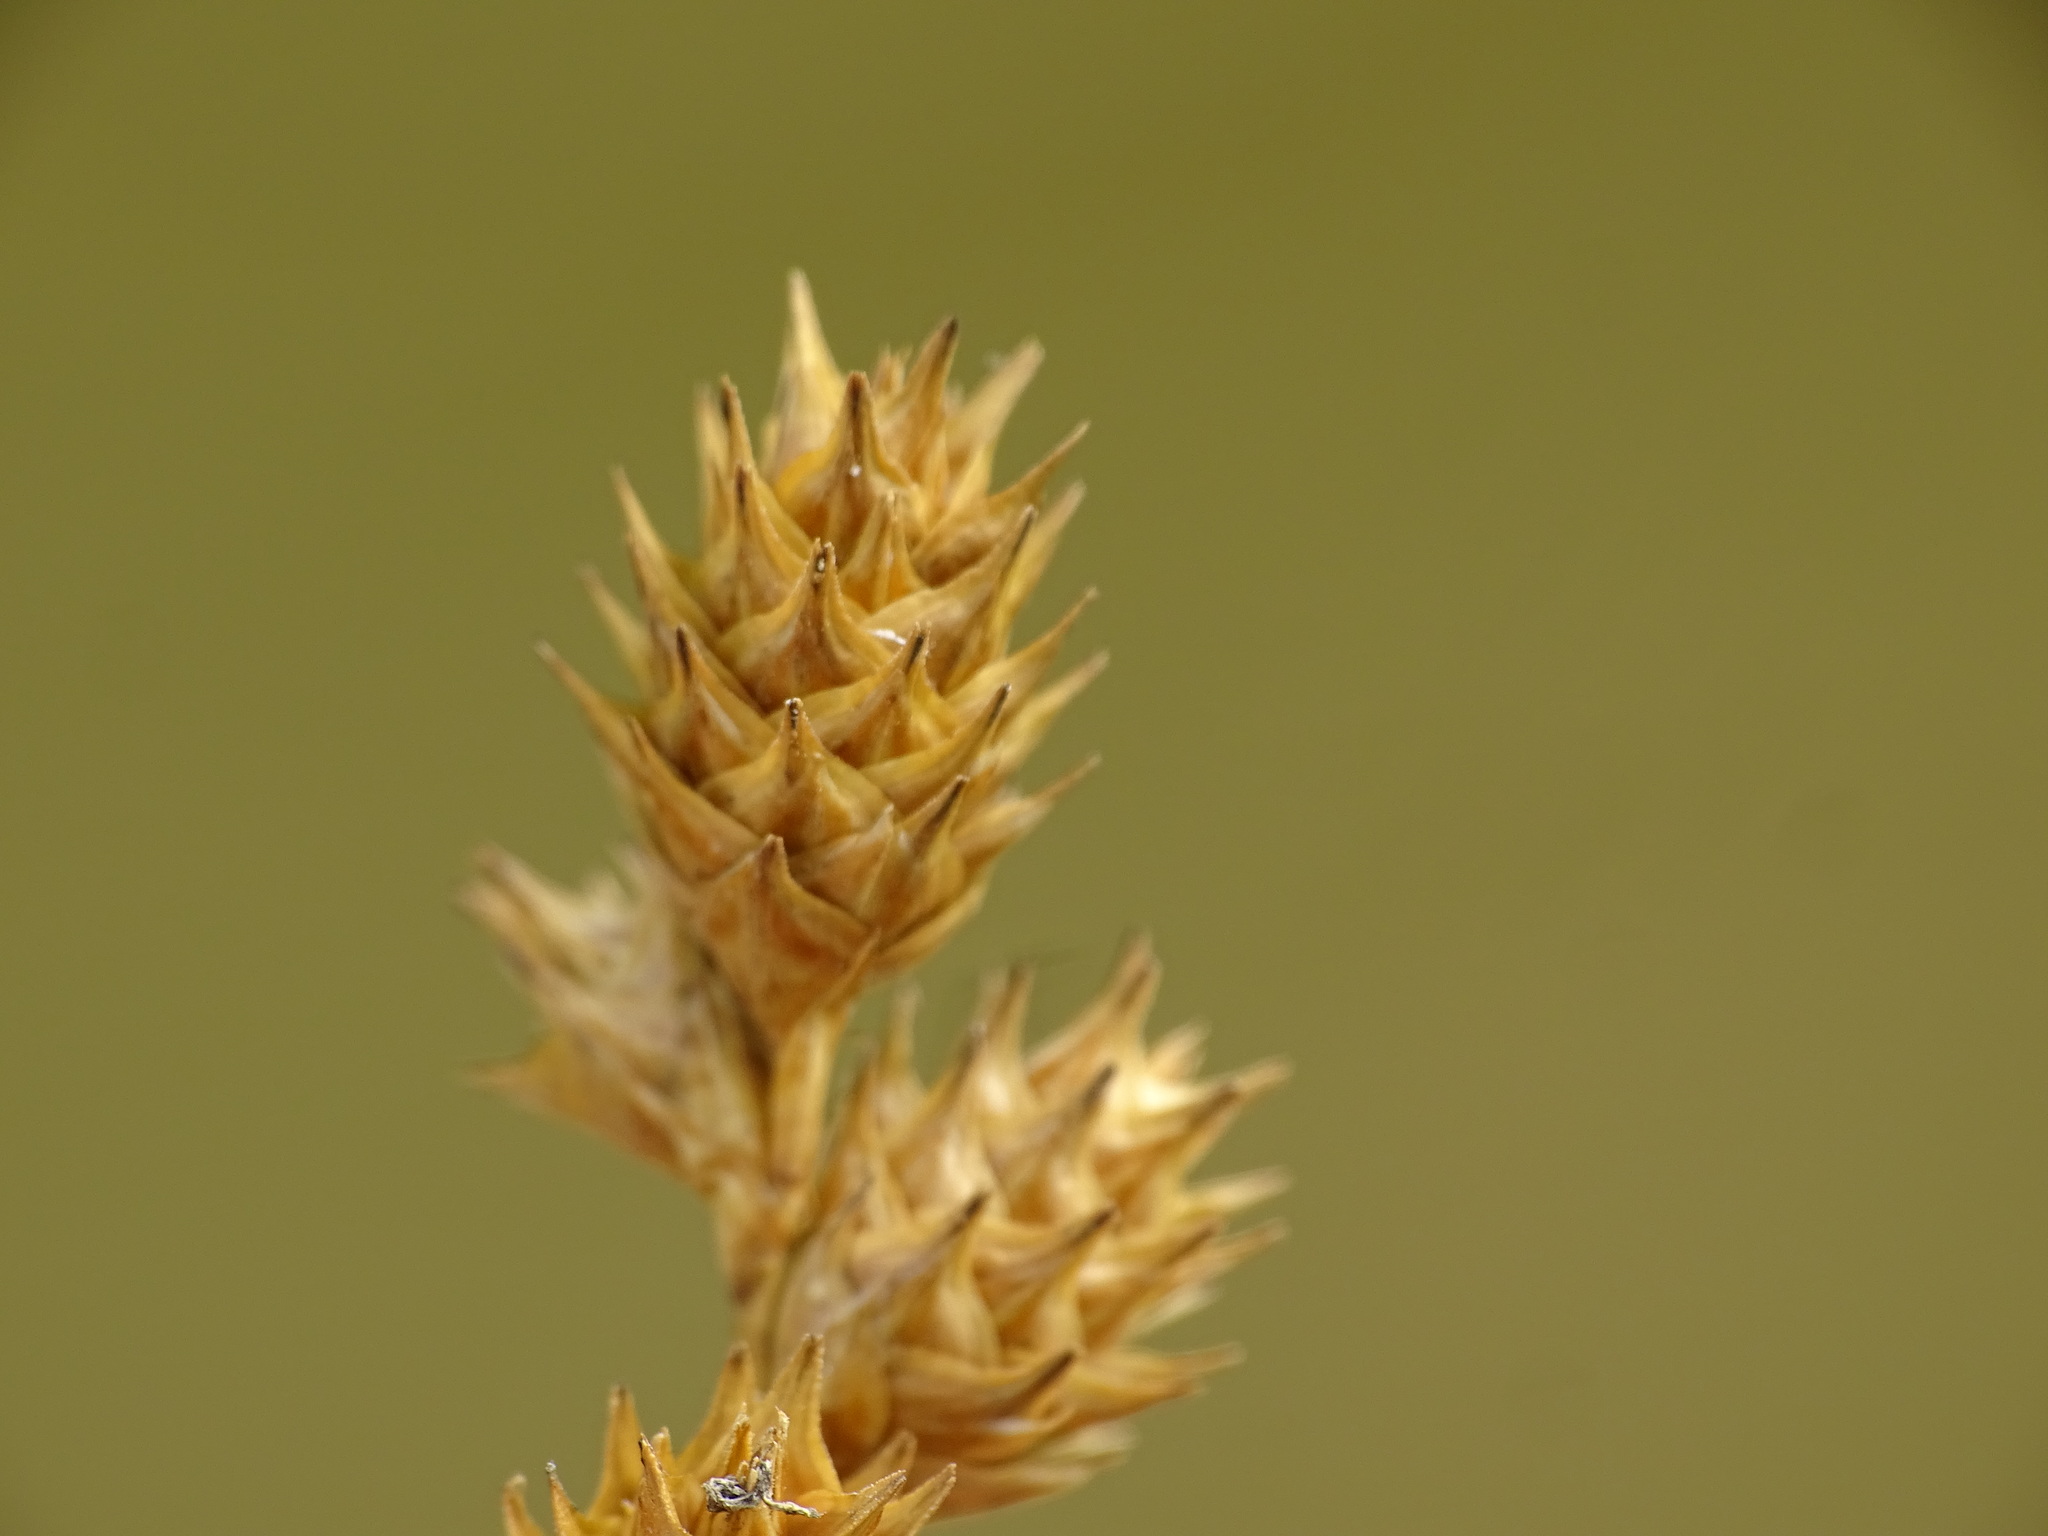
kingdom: Plantae
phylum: Tracheophyta
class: Liliopsida
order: Poales
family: Cyperaceae
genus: Carex
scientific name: Carex brevior
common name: Brevior sedge
